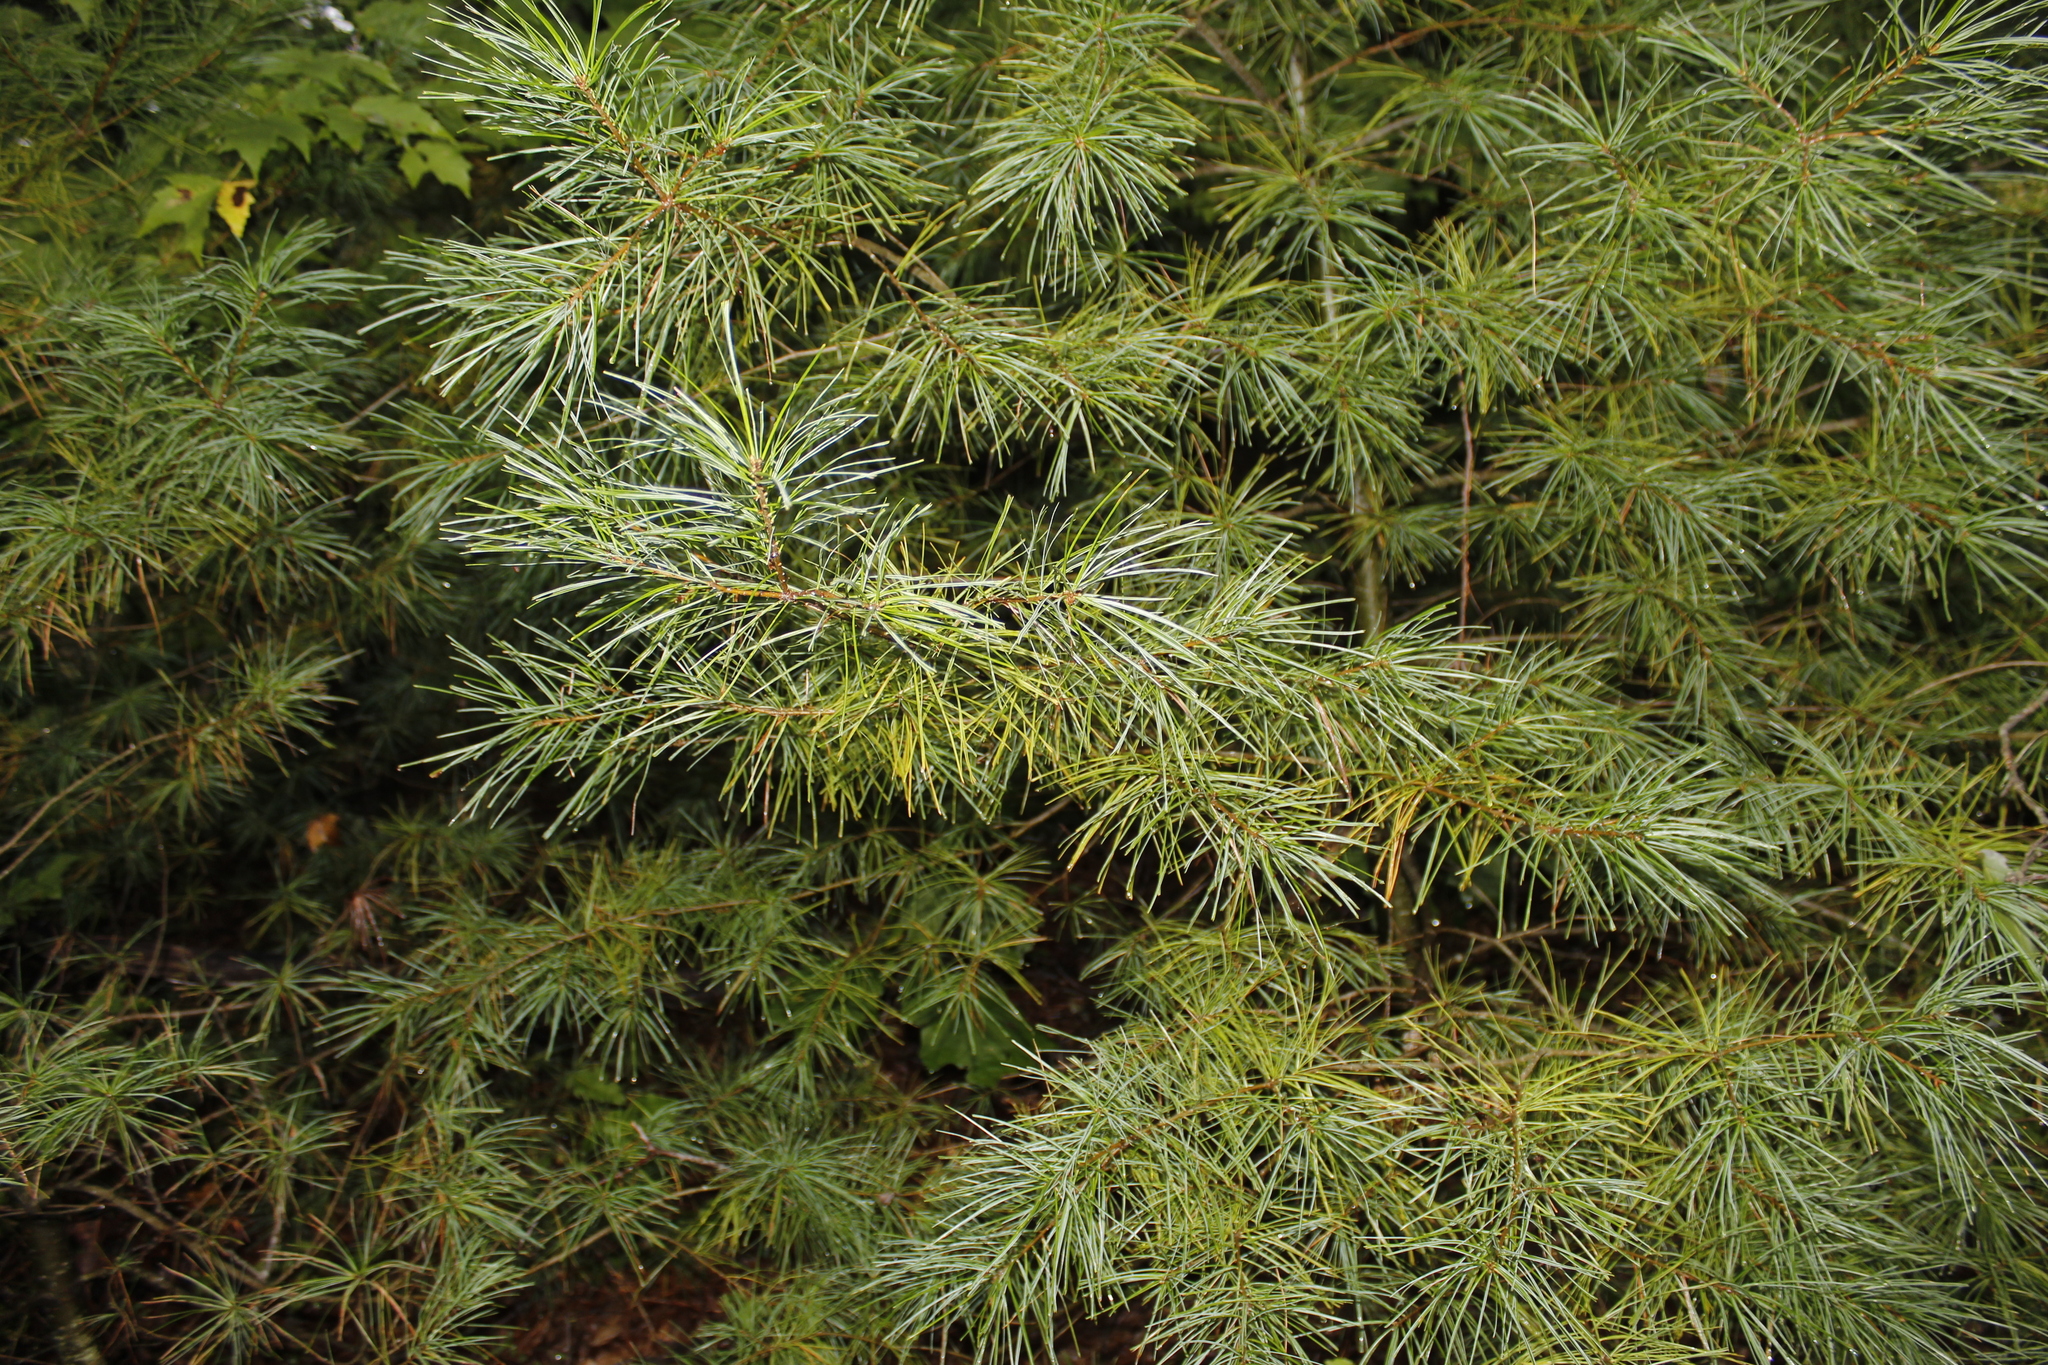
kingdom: Plantae
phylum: Tracheophyta
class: Pinopsida
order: Pinales
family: Pinaceae
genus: Pinus
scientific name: Pinus strobus
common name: Weymouth pine
